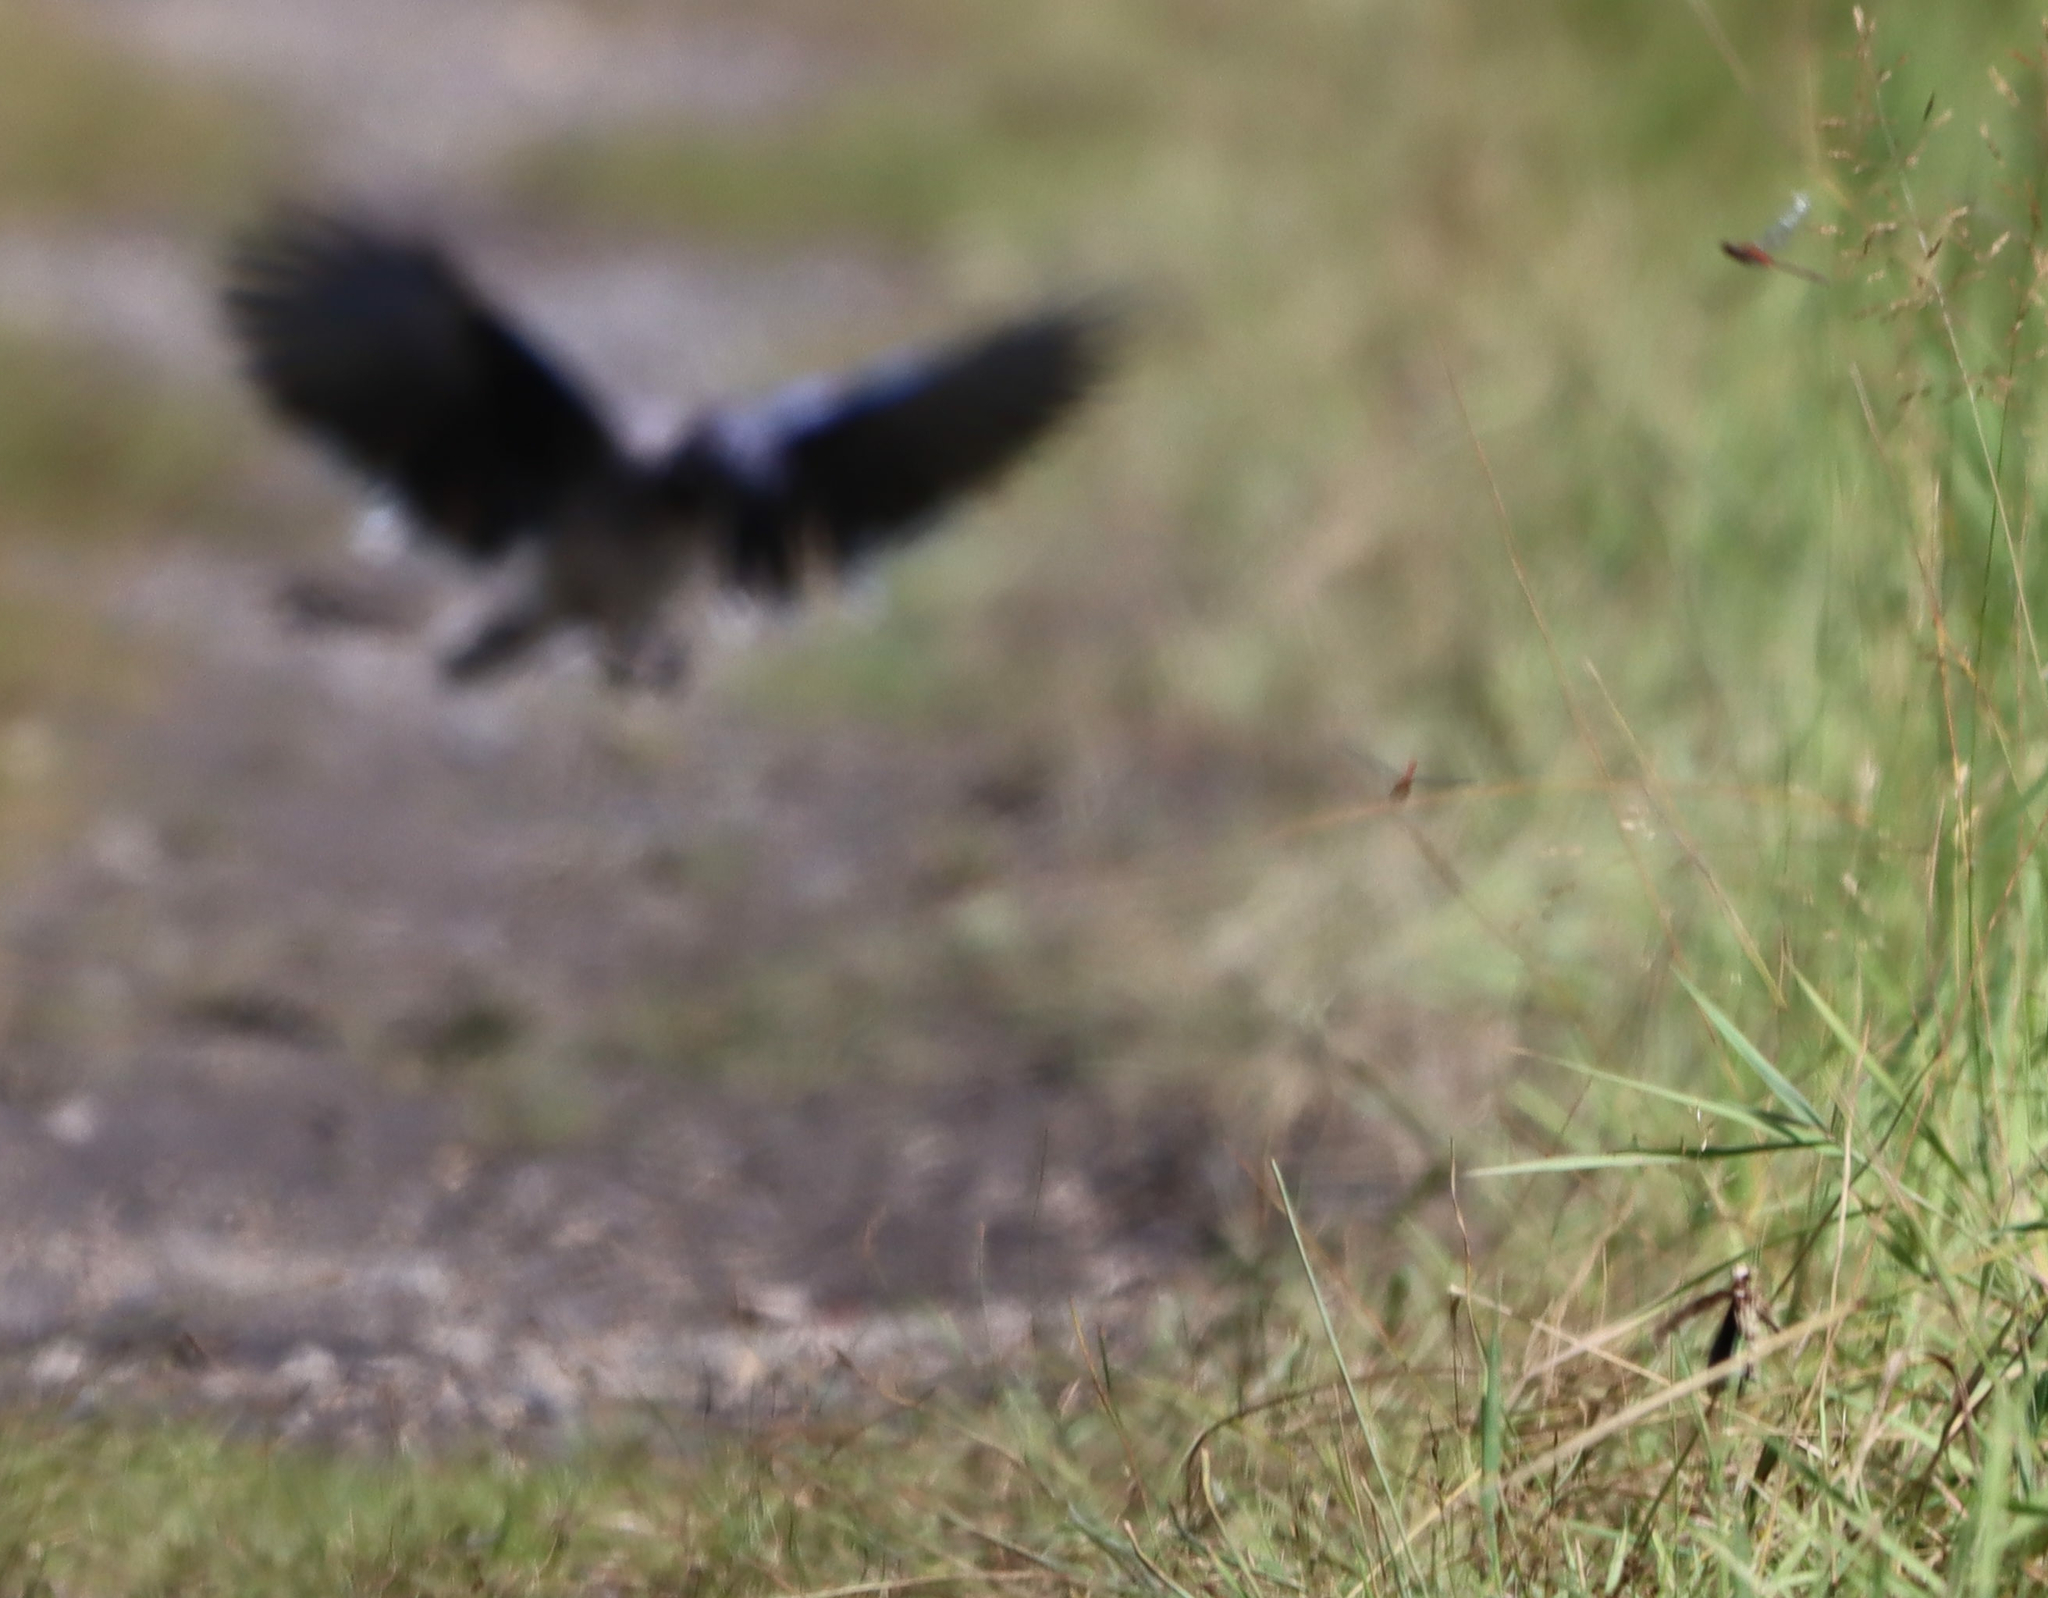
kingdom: Animalia
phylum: Chordata
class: Aves
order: Passeriformes
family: Corvidae
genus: Cyanocitta
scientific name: Cyanocitta cristata
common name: Blue jay
